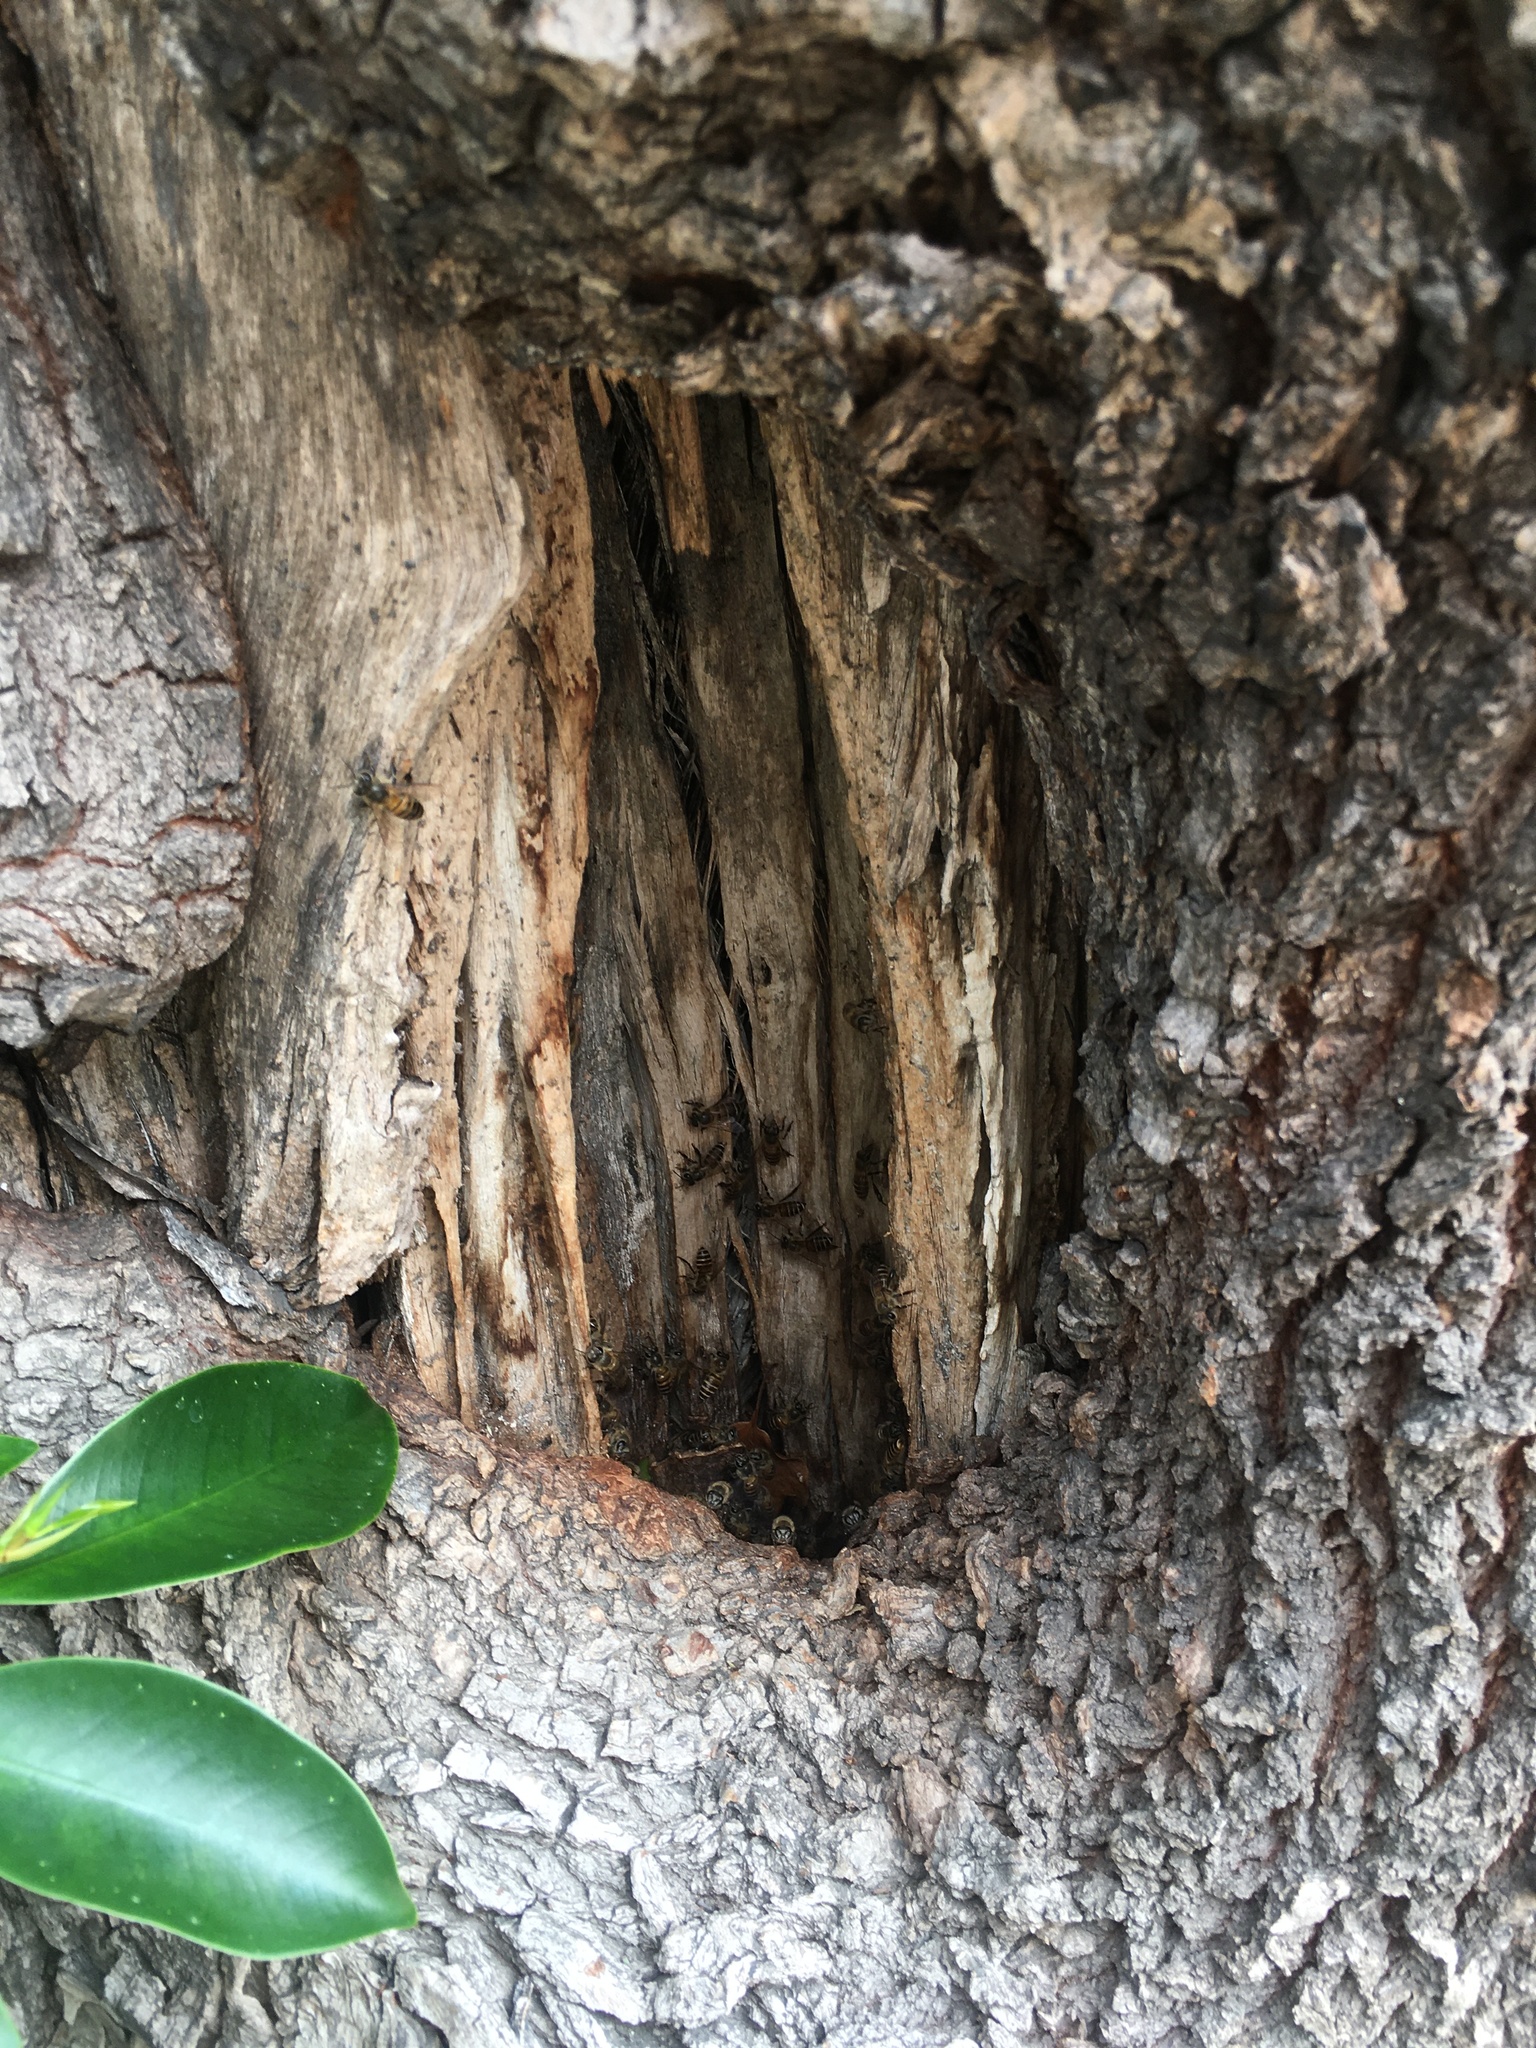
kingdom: Animalia
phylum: Arthropoda
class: Insecta
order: Hymenoptera
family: Apidae
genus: Apis
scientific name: Apis cerana
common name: Honey bee
